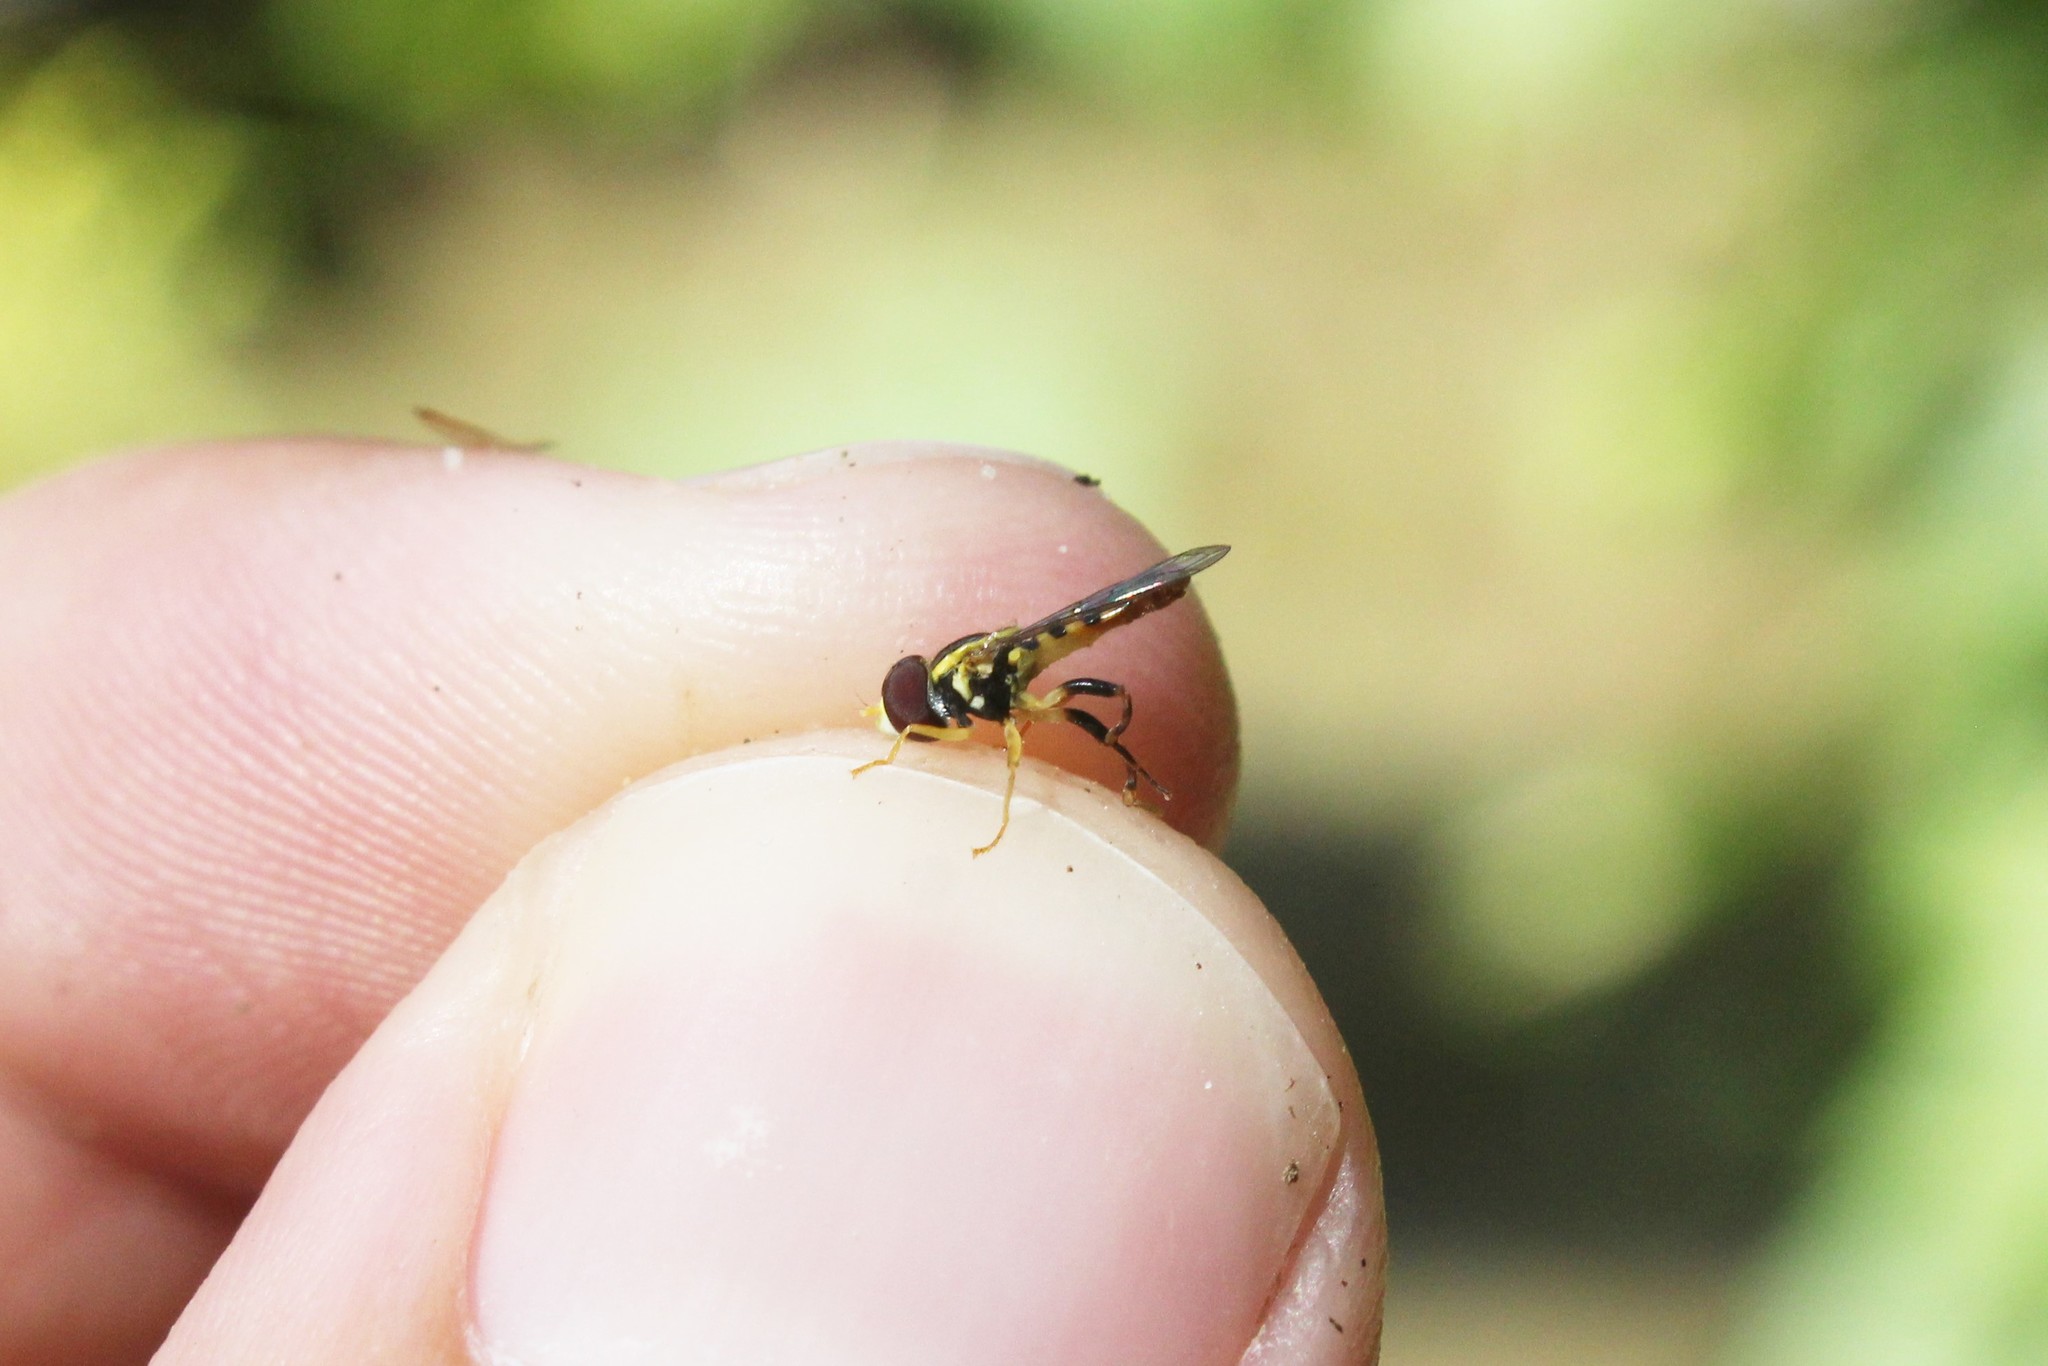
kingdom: Animalia
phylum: Arthropoda
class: Insecta
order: Diptera
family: Syrphidae
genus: Toxomerus
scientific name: Toxomerus geminatus
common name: Eastern calligrapher
